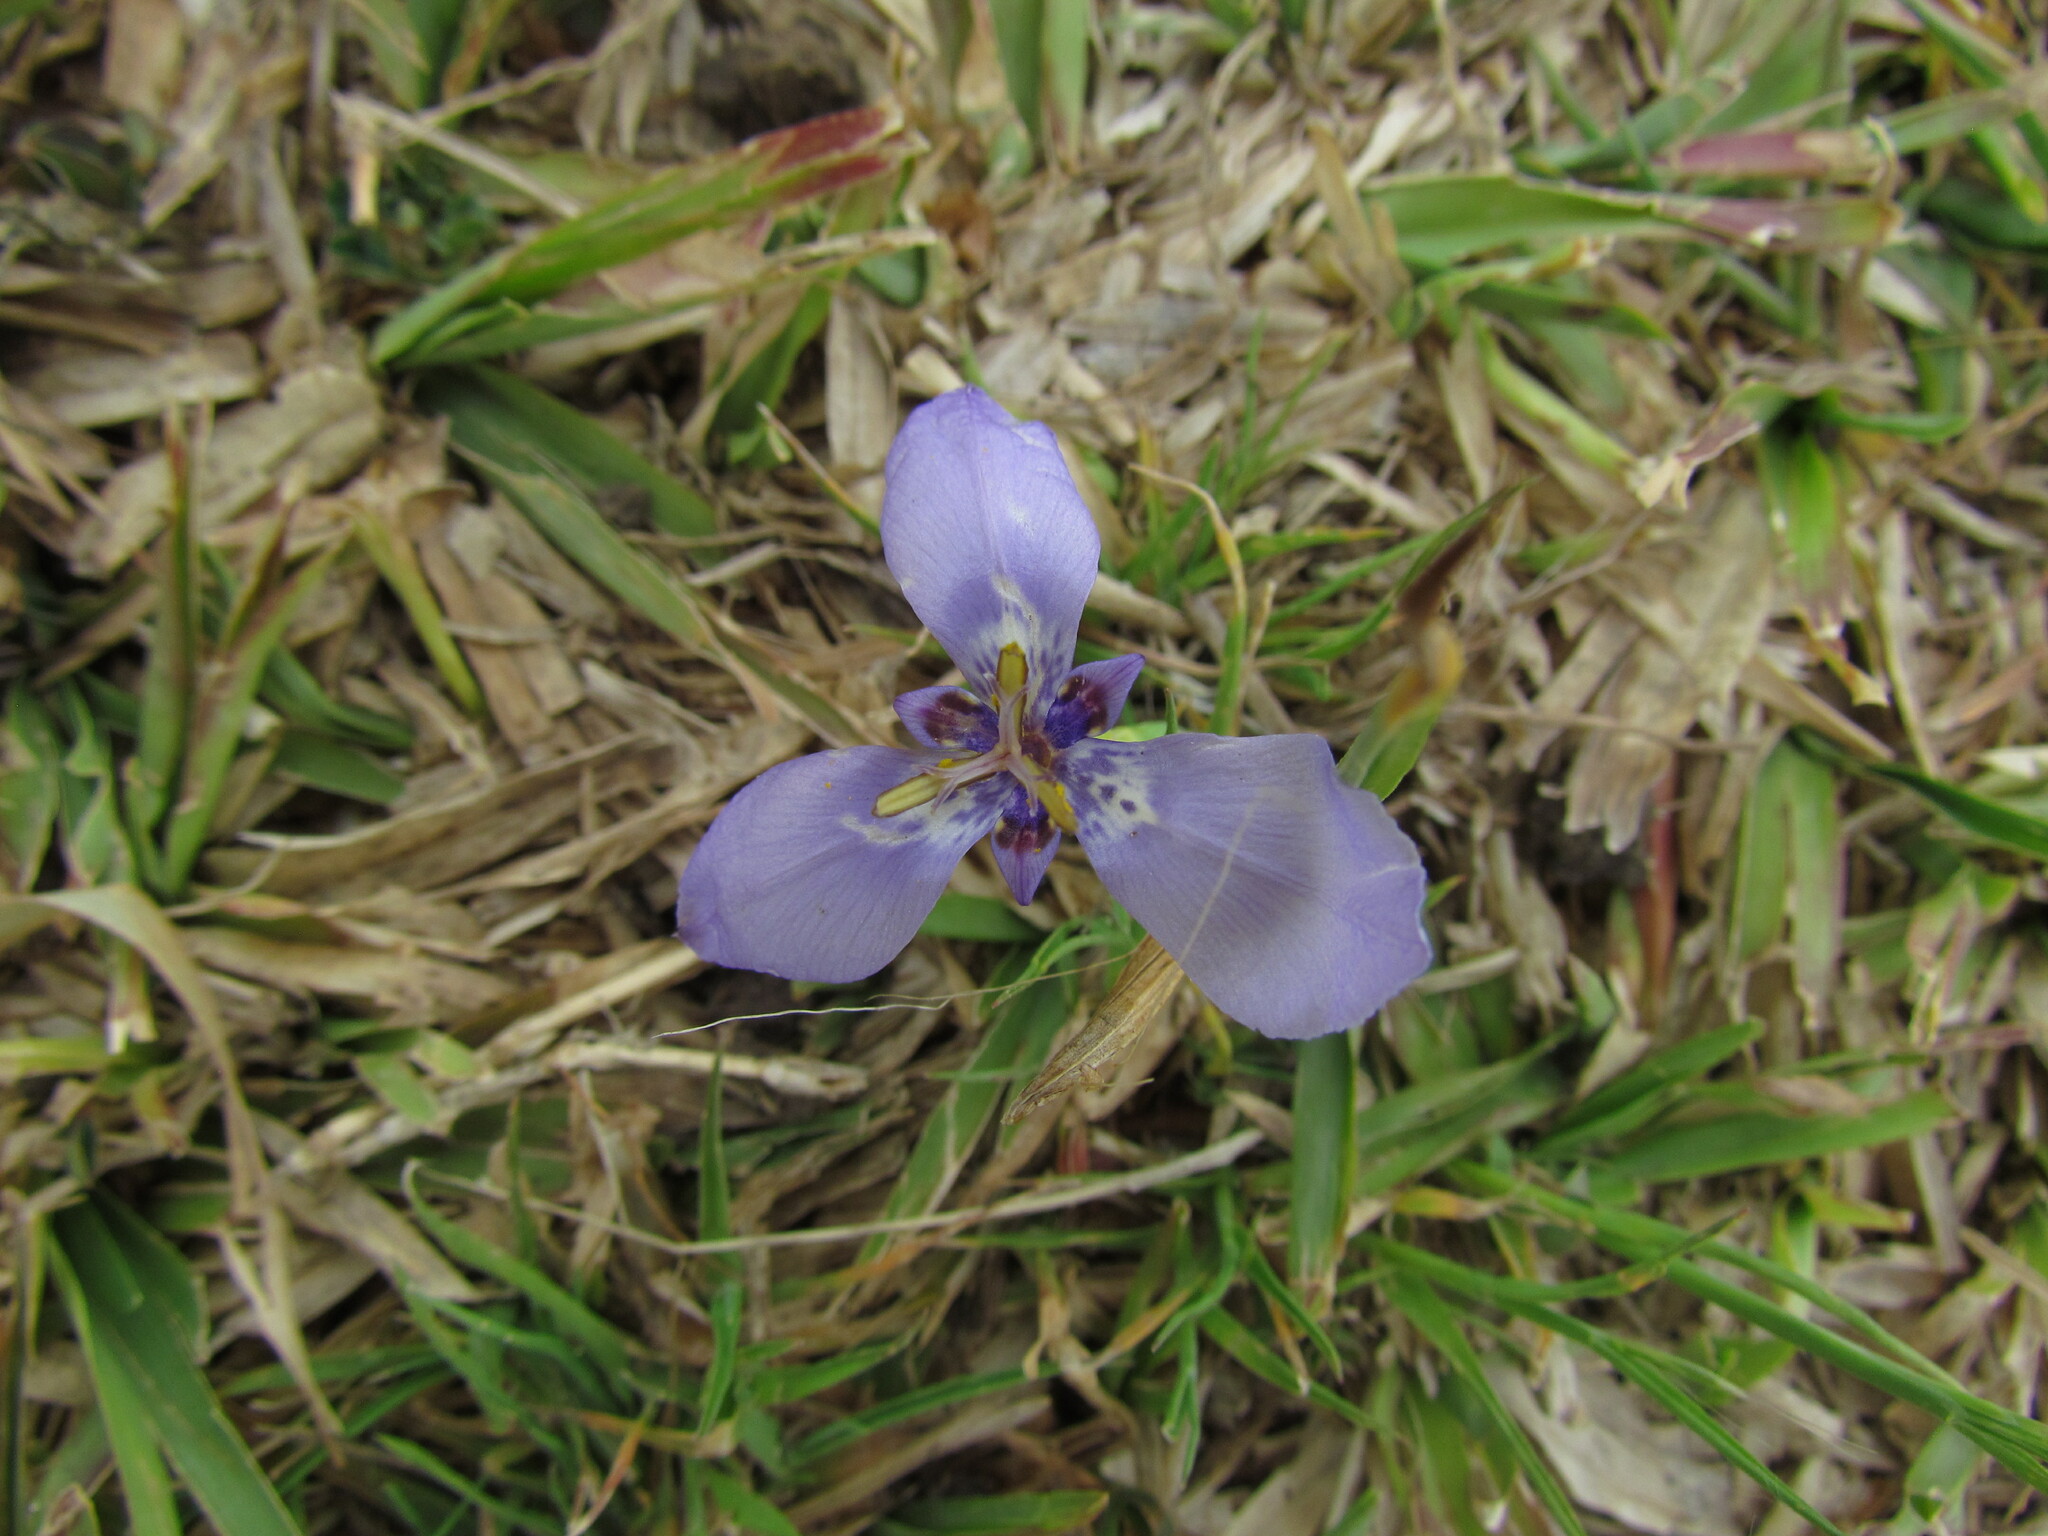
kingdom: Plantae
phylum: Tracheophyta
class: Liliopsida
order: Asparagales
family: Iridaceae
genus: Herbertia
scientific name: Herbertia lahue
